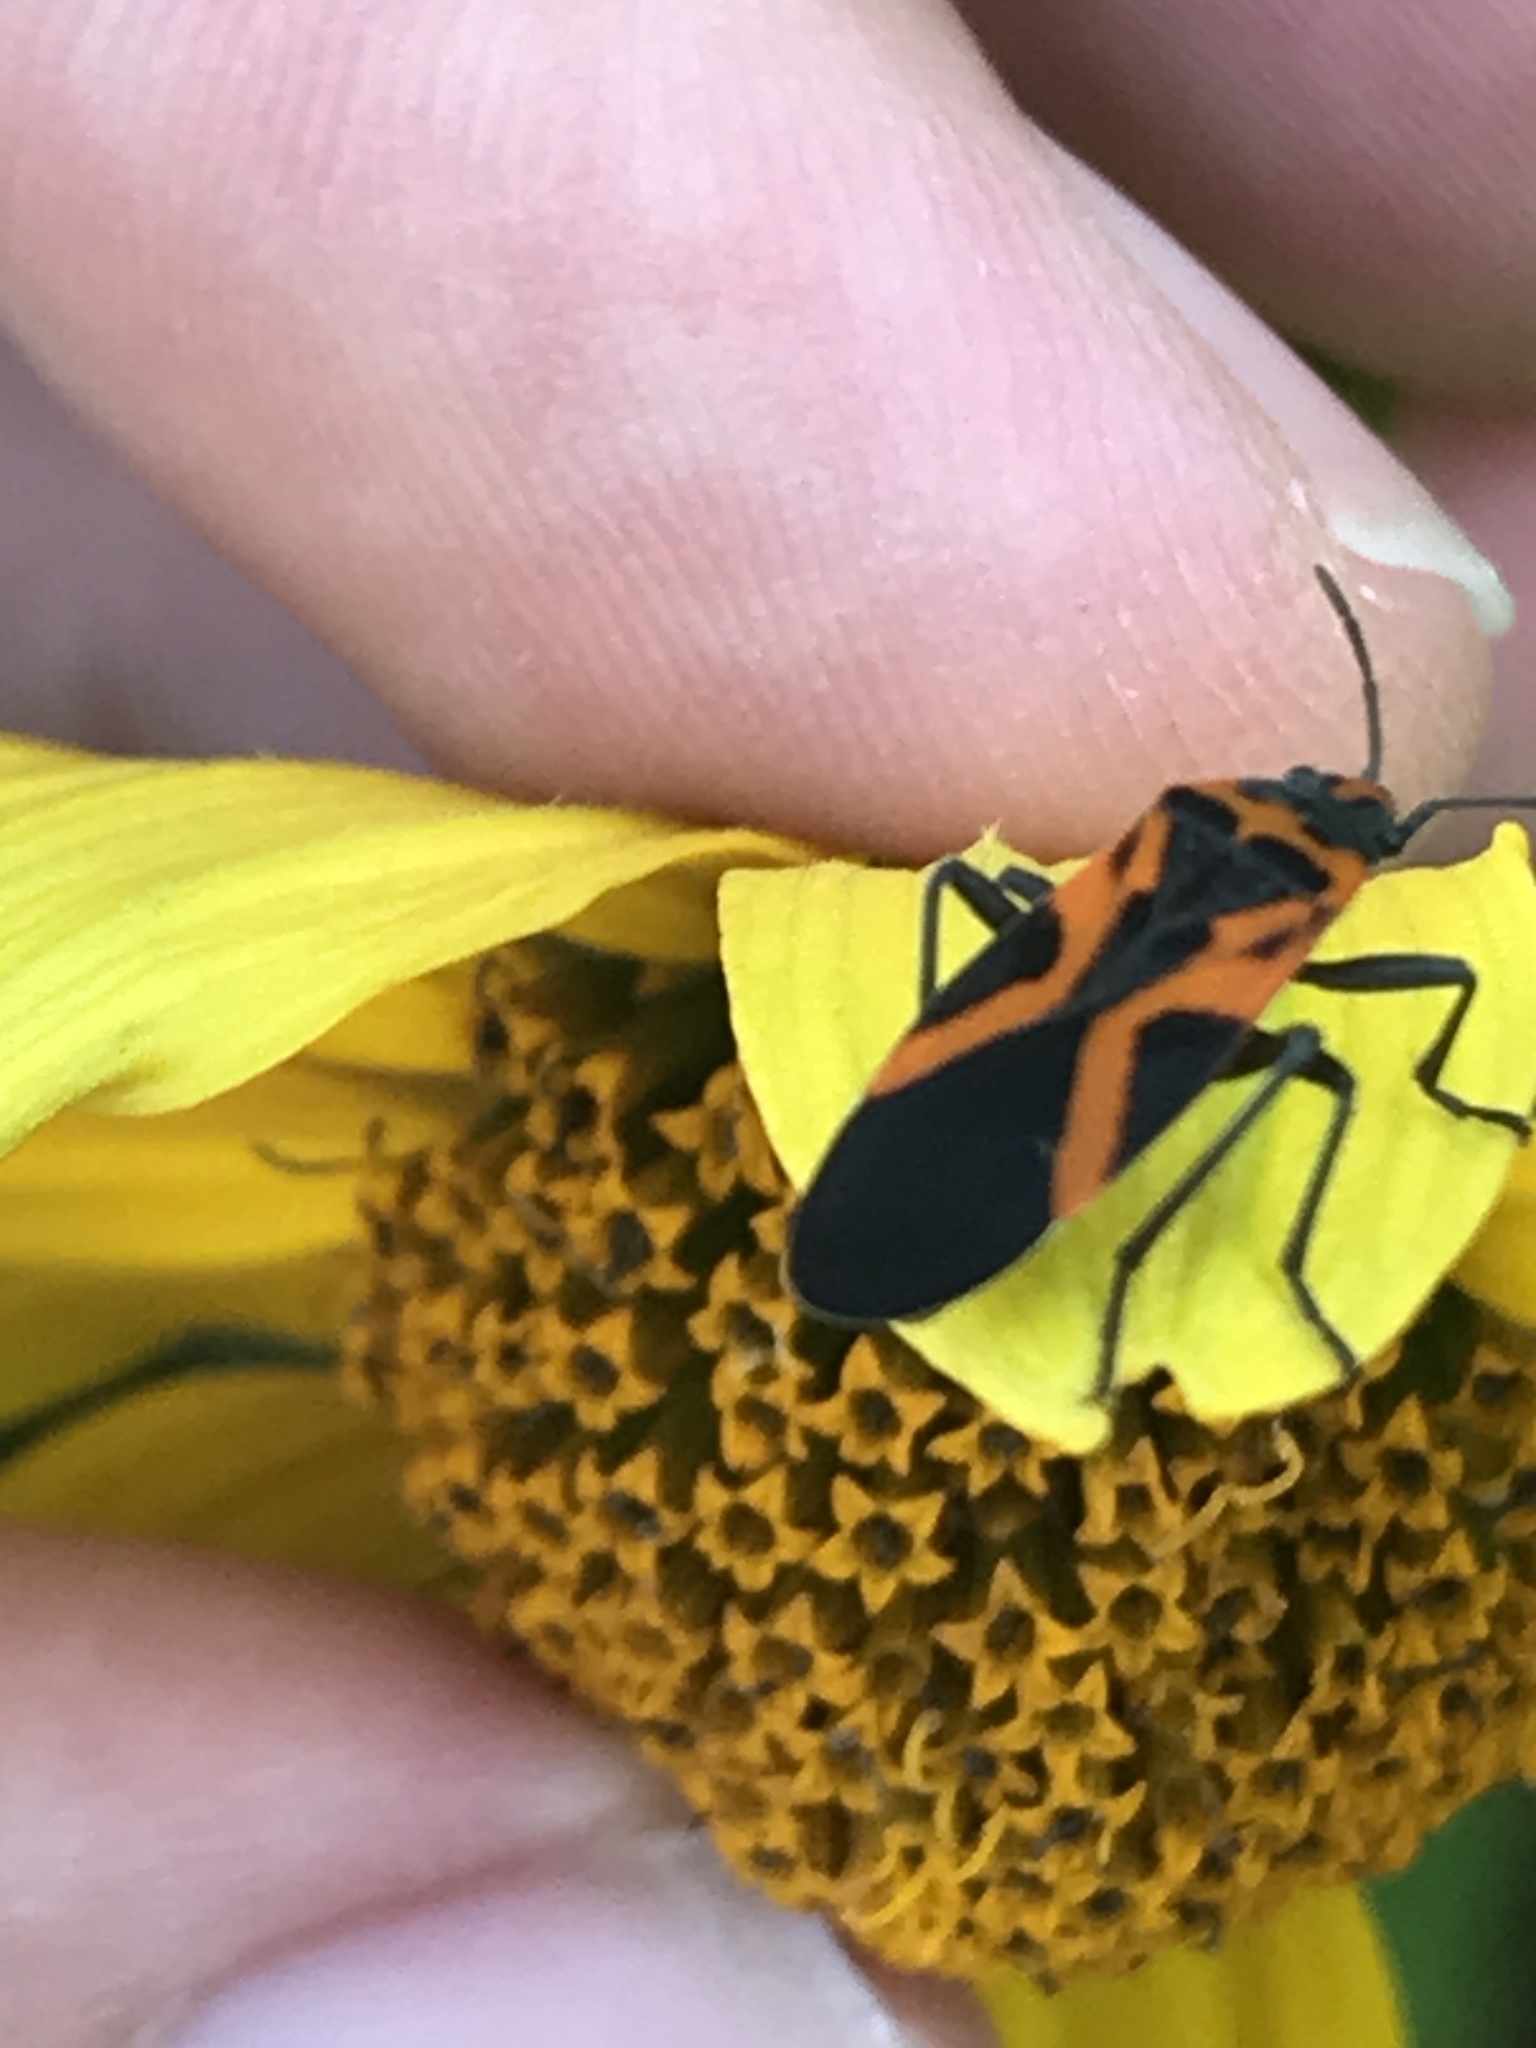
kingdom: Animalia
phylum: Arthropoda
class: Insecta
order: Hemiptera
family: Lygaeidae
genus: Lygaeus
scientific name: Lygaeus turcicus
